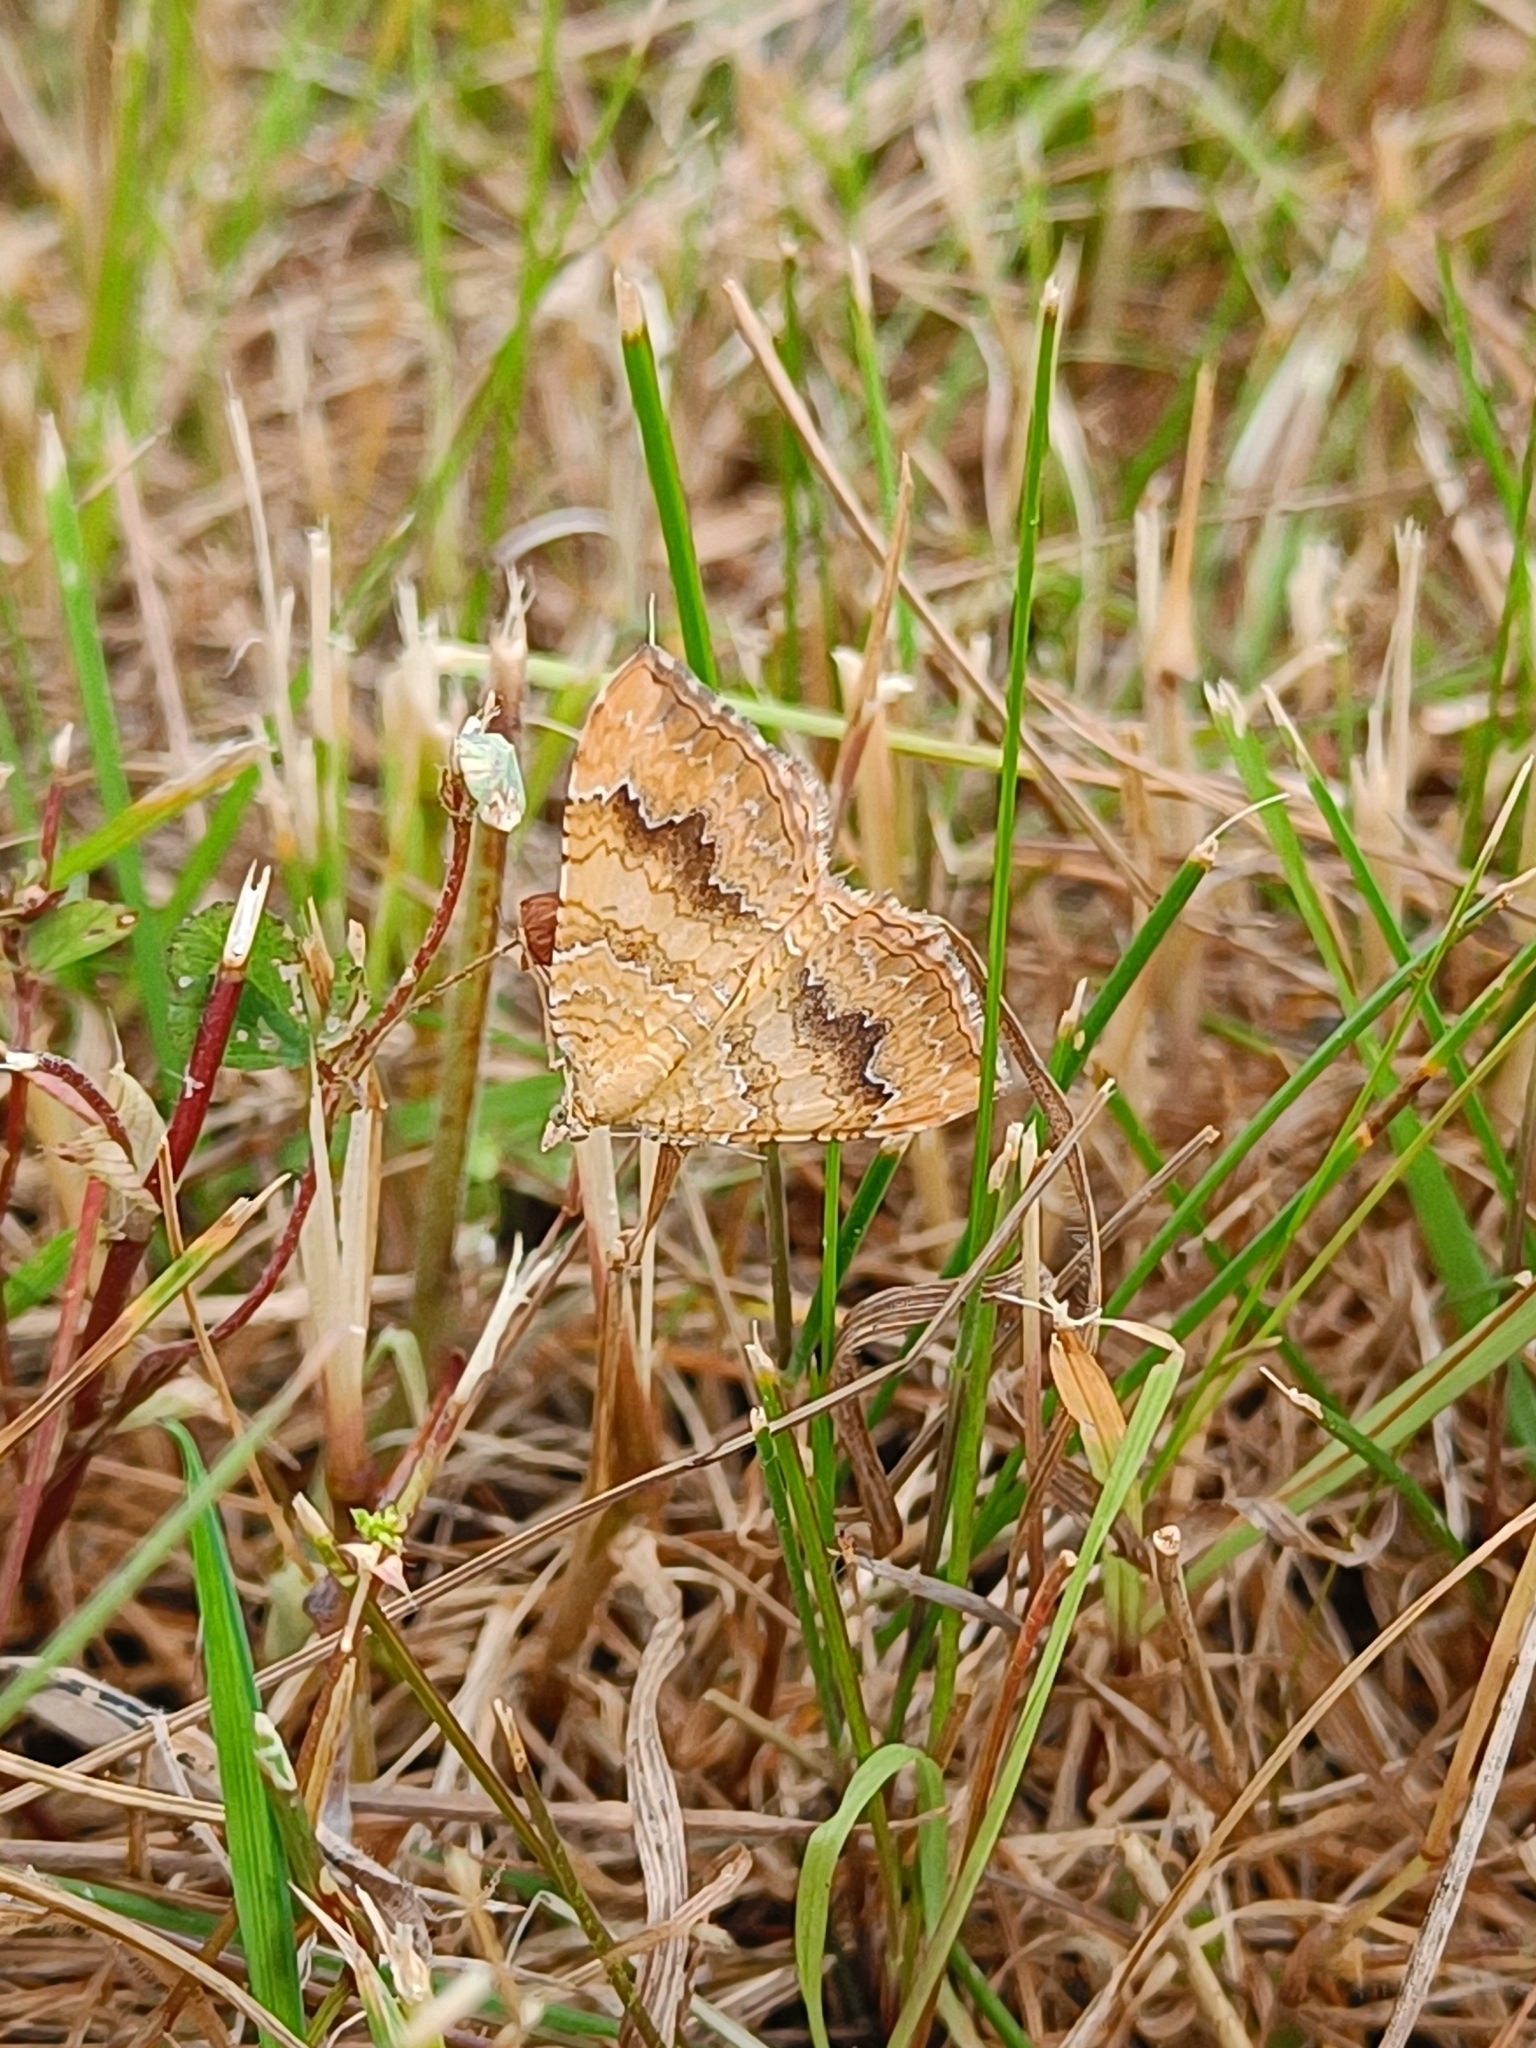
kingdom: Animalia
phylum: Arthropoda
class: Insecta
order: Lepidoptera
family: Geometridae
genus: Camptogramma
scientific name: Camptogramma bilineata
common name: Yellow shell
